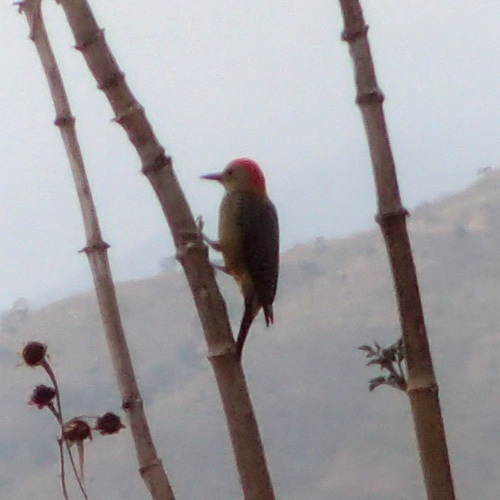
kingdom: Animalia
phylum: Chordata
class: Aves
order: Piciformes
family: Picidae
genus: Melanerpes
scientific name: Melanerpes aurifrons
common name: Golden-fronted woodpecker
